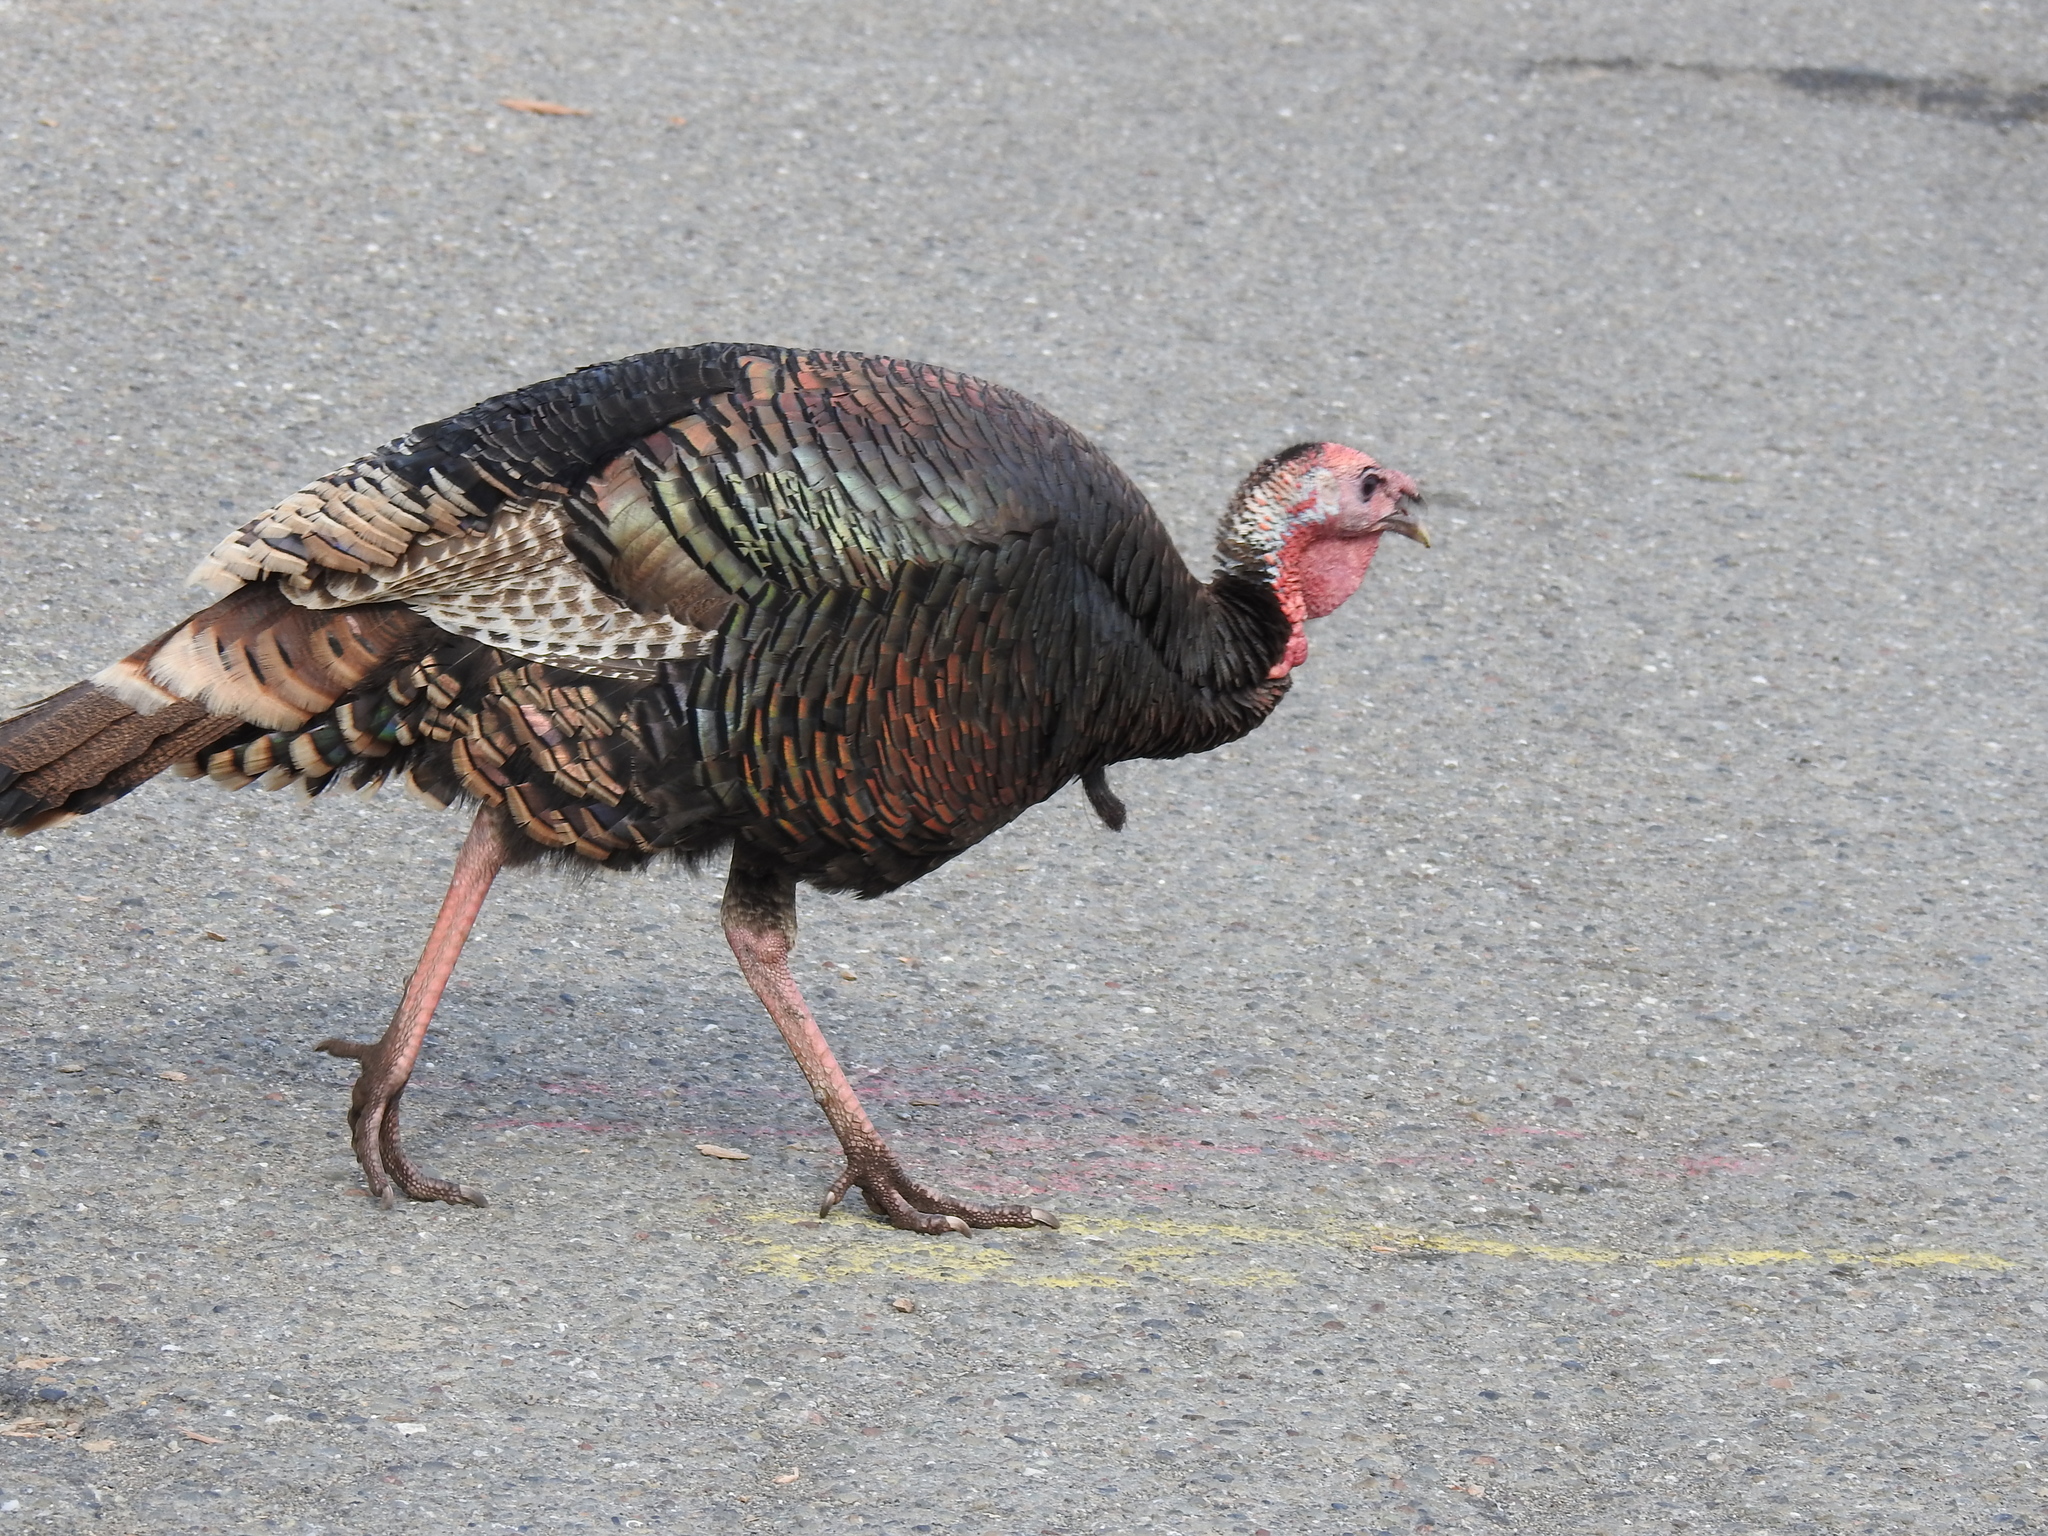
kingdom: Animalia
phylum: Chordata
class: Aves
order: Galliformes
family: Phasianidae
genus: Meleagris
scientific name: Meleagris gallopavo
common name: Wild turkey
